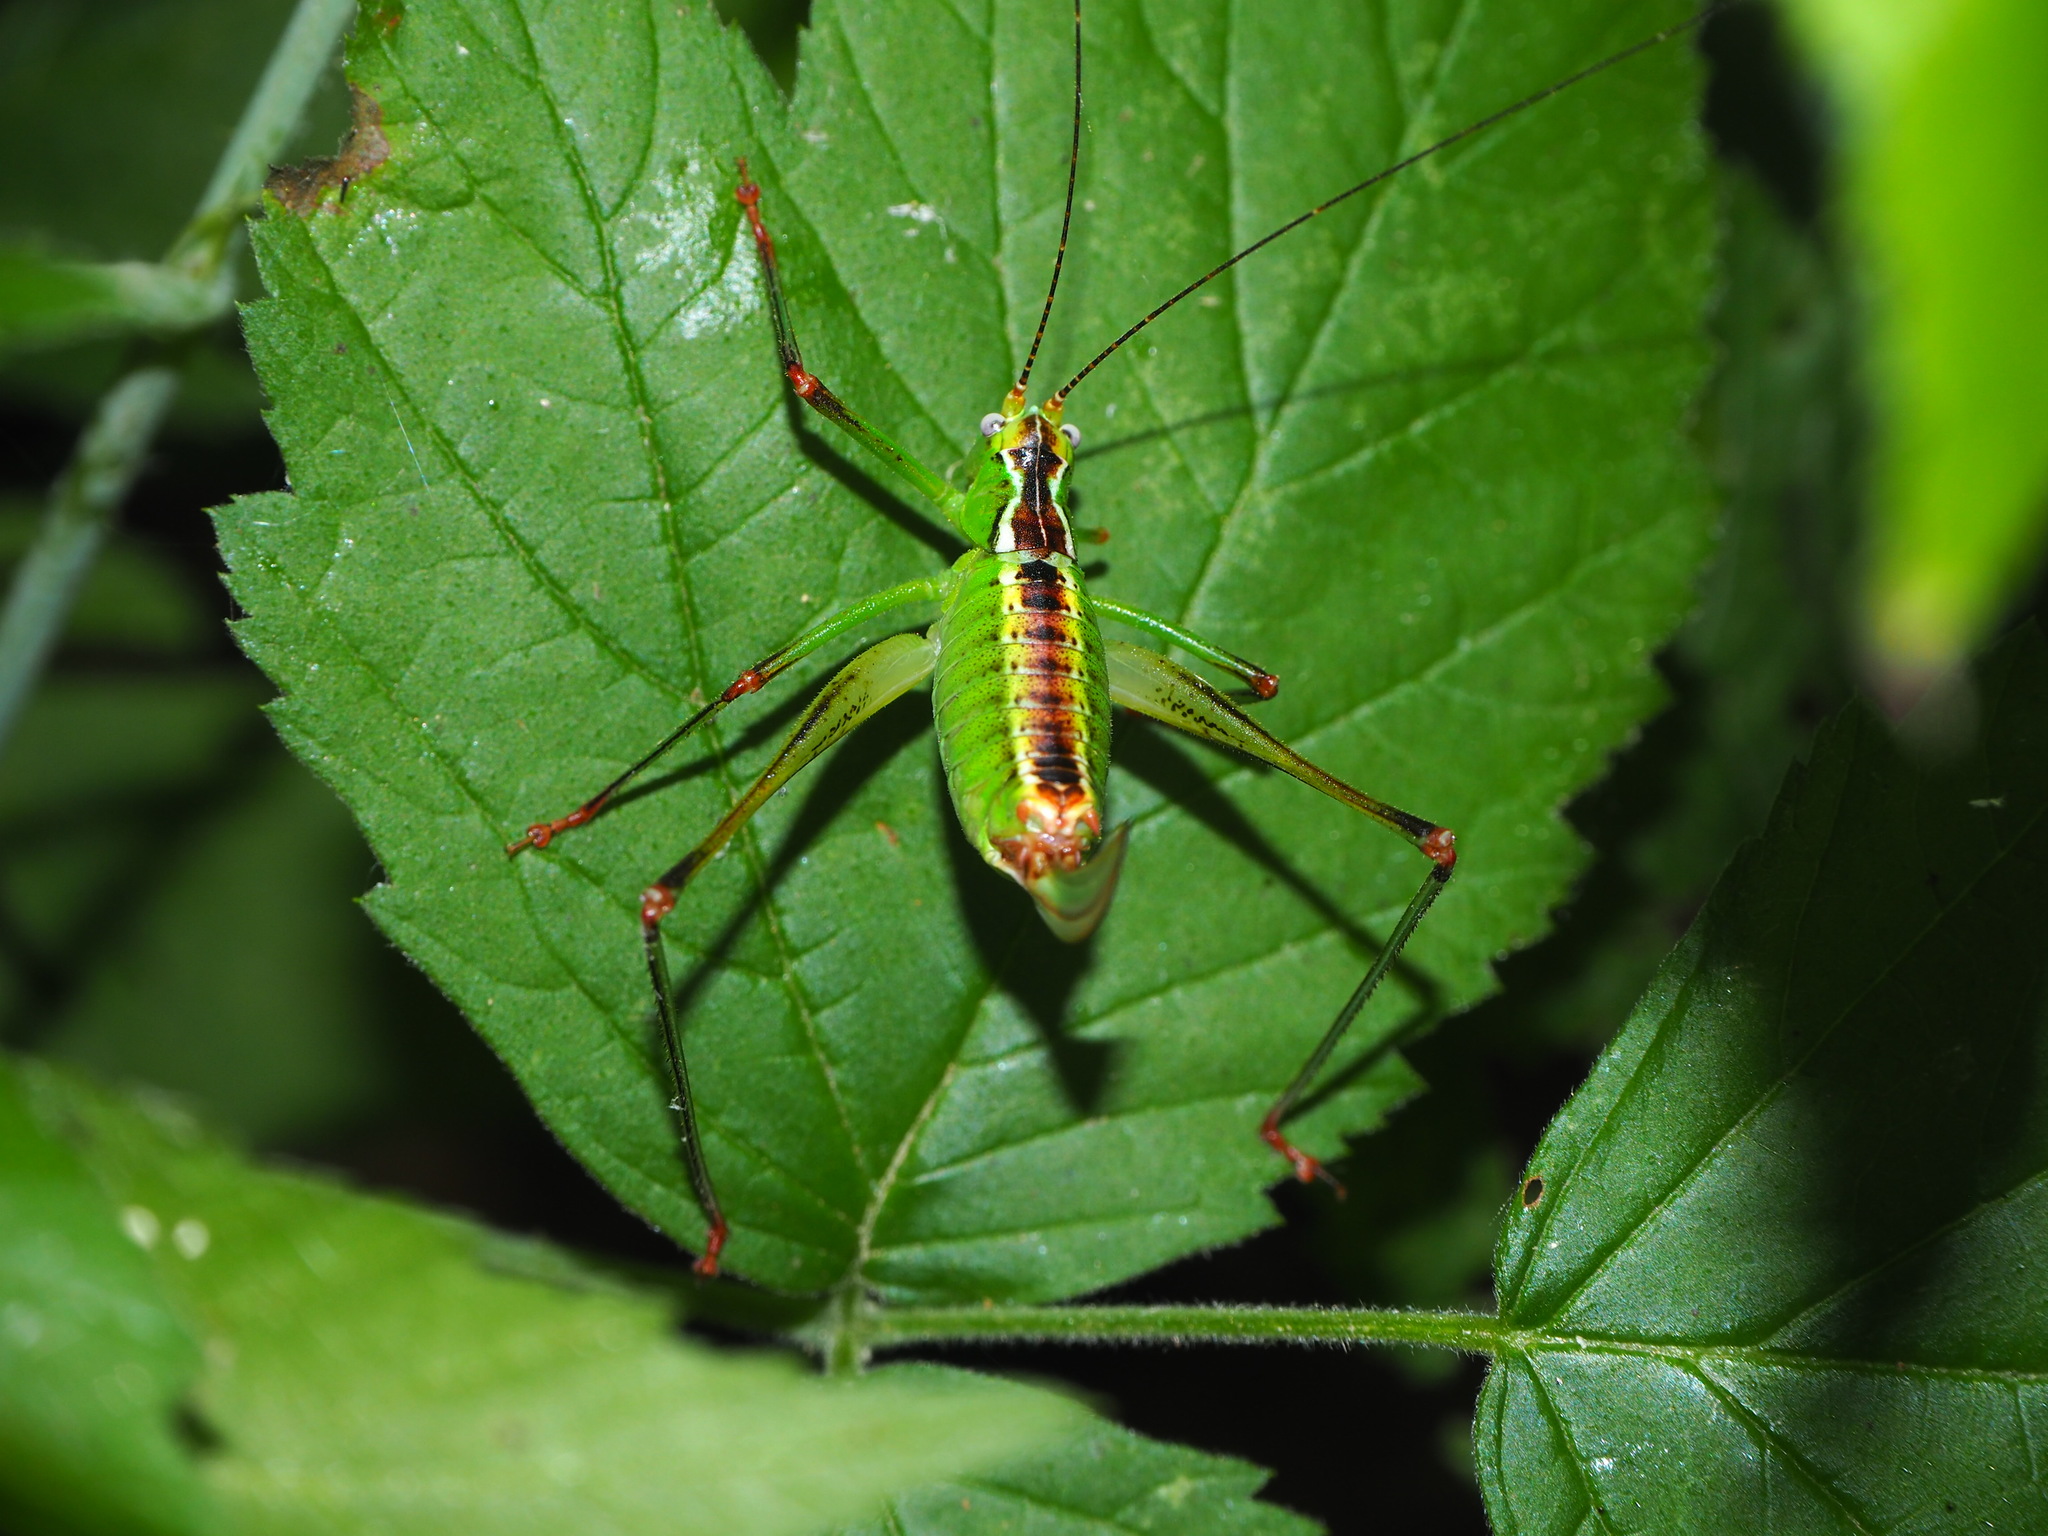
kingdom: Animalia
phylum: Arthropoda
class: Insecta
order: Orthoptera
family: Tettigoniidae
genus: Andreiniimon
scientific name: Andreiniimon nuptialis
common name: Splendid bush-cricket
